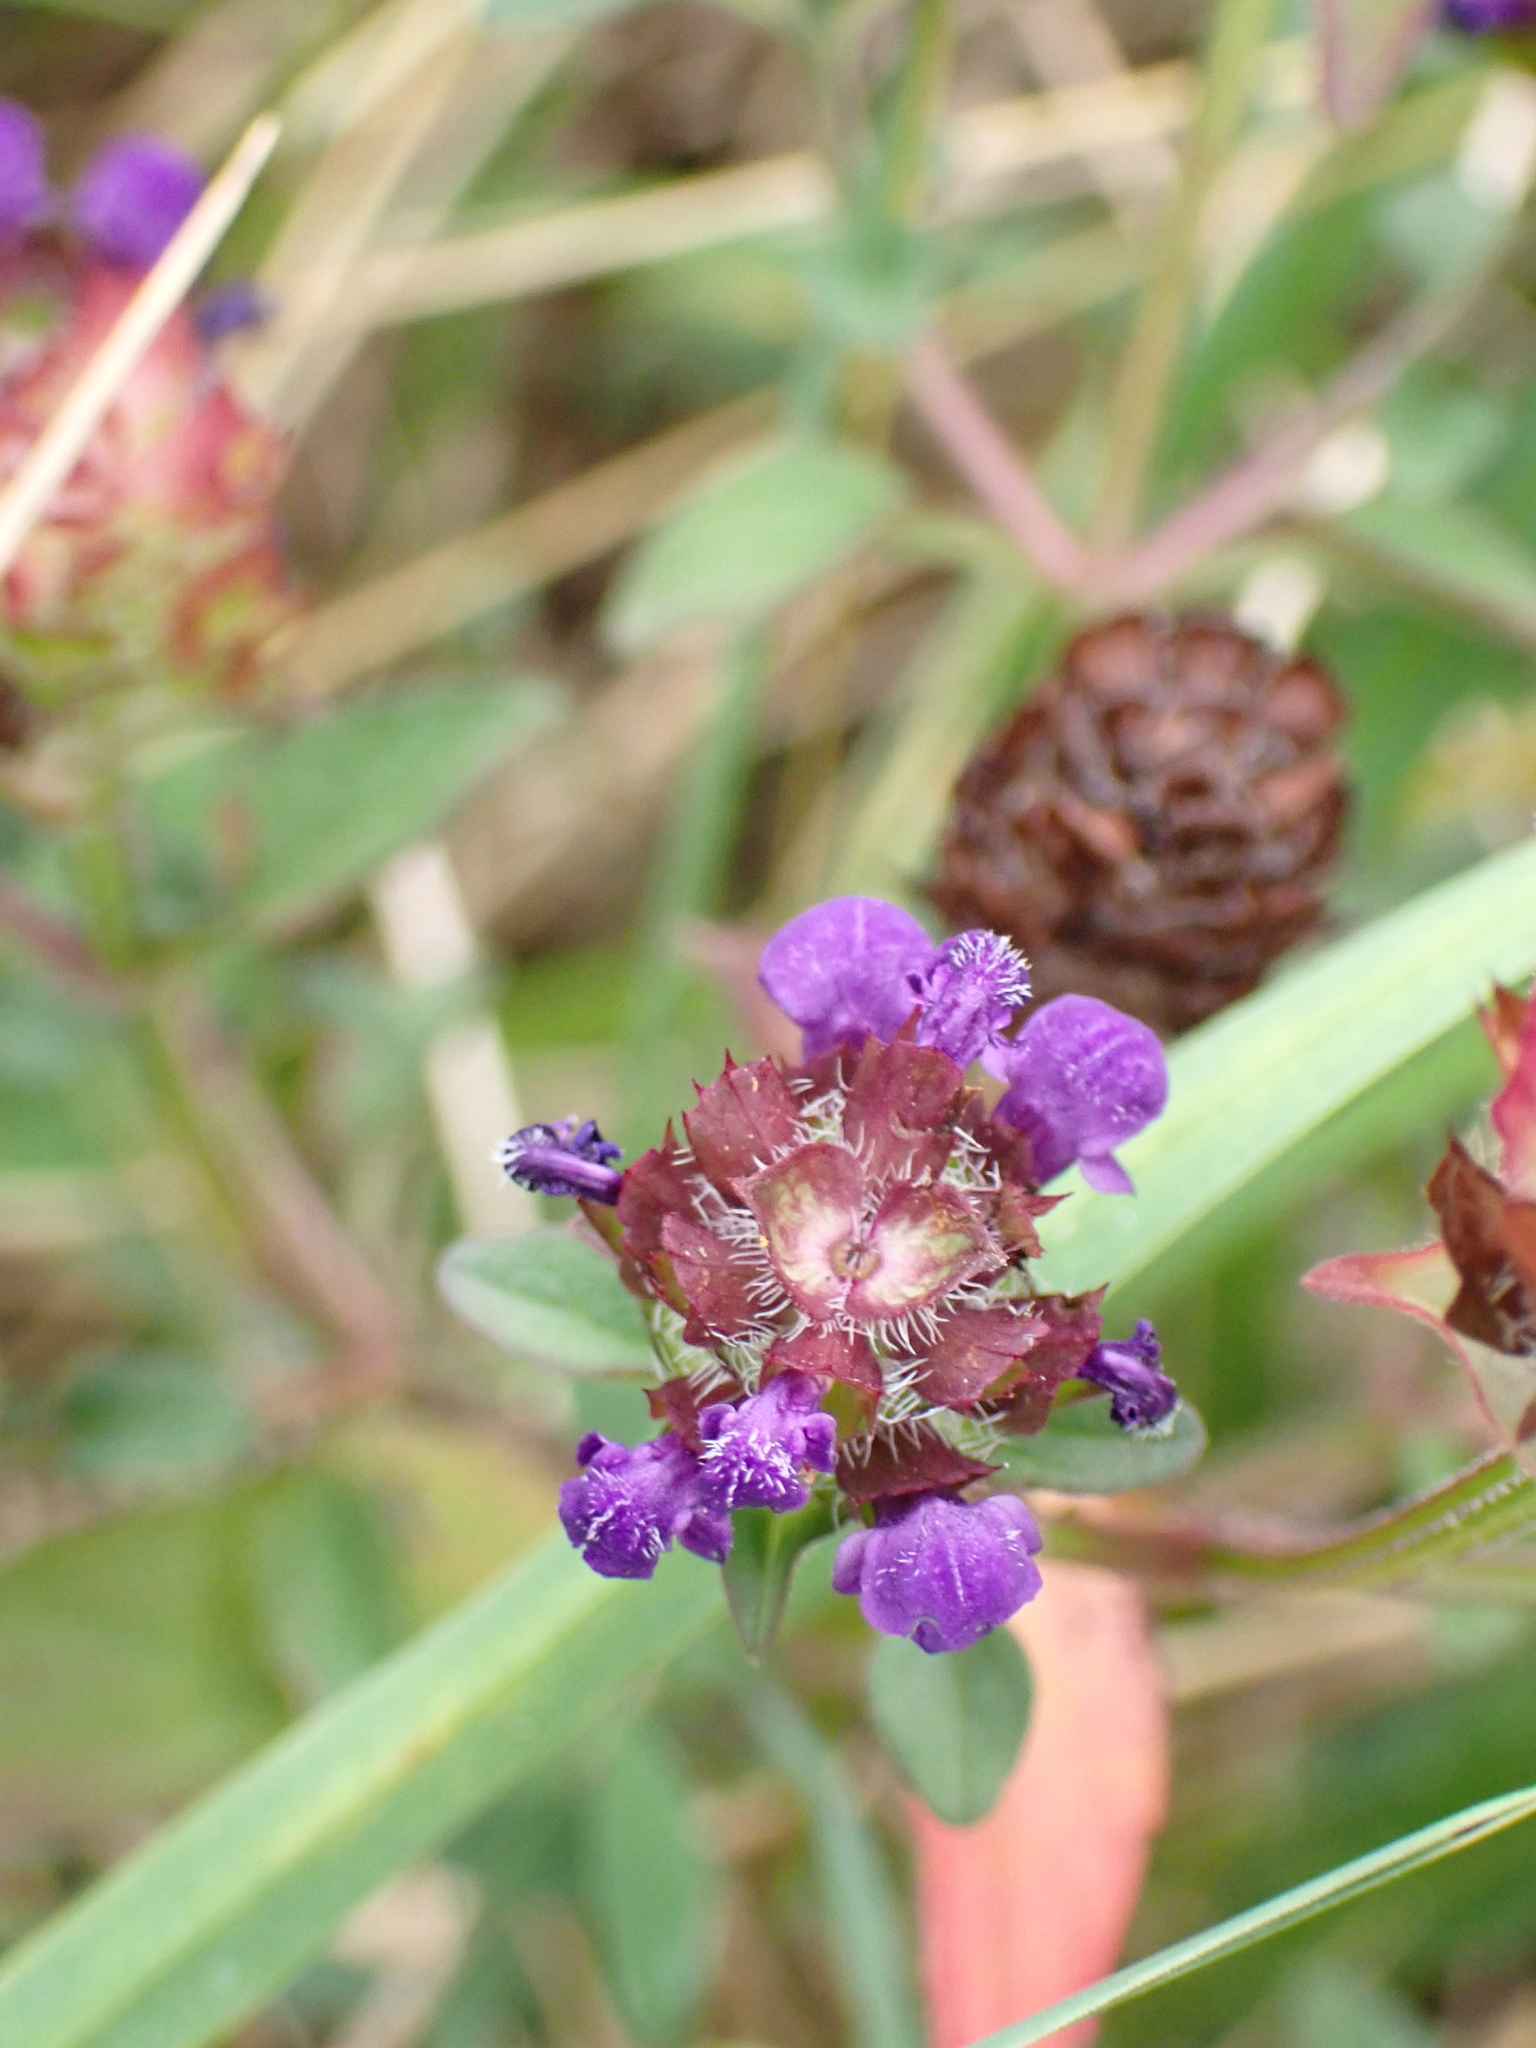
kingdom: Plantae
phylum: Tracheophyta
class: Magnoliopsida
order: Lamiales
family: Lamiaceae
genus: Prunella
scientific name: Prunella vulgaris
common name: Heal-all
